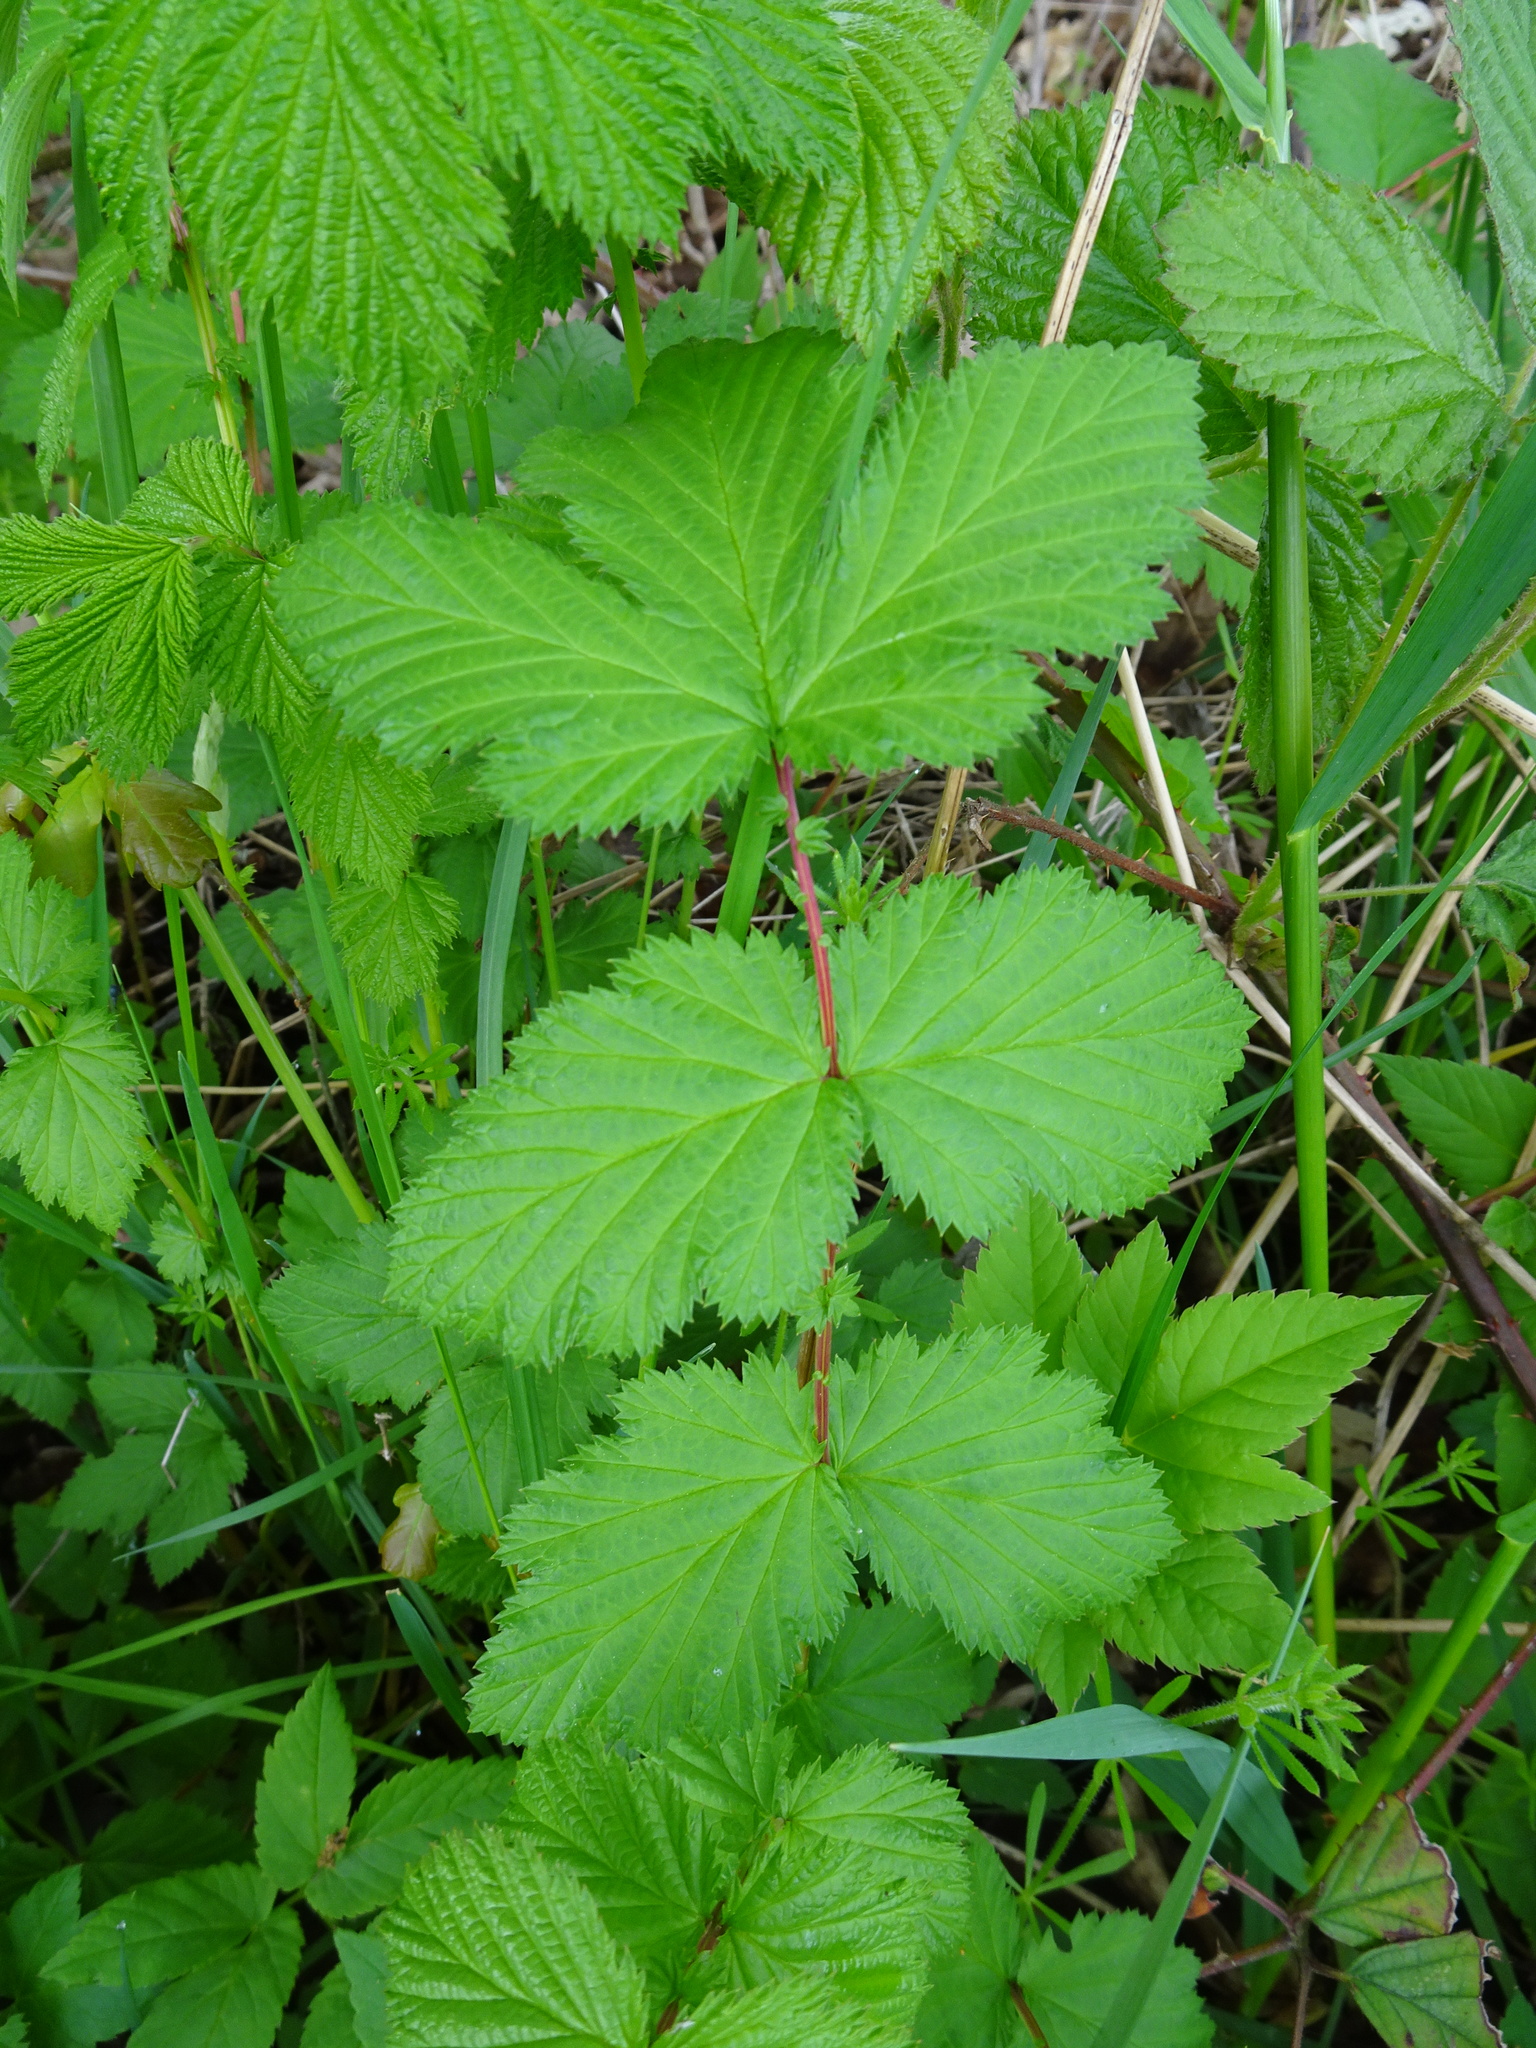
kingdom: Plantae
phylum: Tracheophyta
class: Magnoliopsida
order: Rosales
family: Rosaceae
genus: Filipendula
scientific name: Filipendula ulmaria
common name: Meadowsweet
